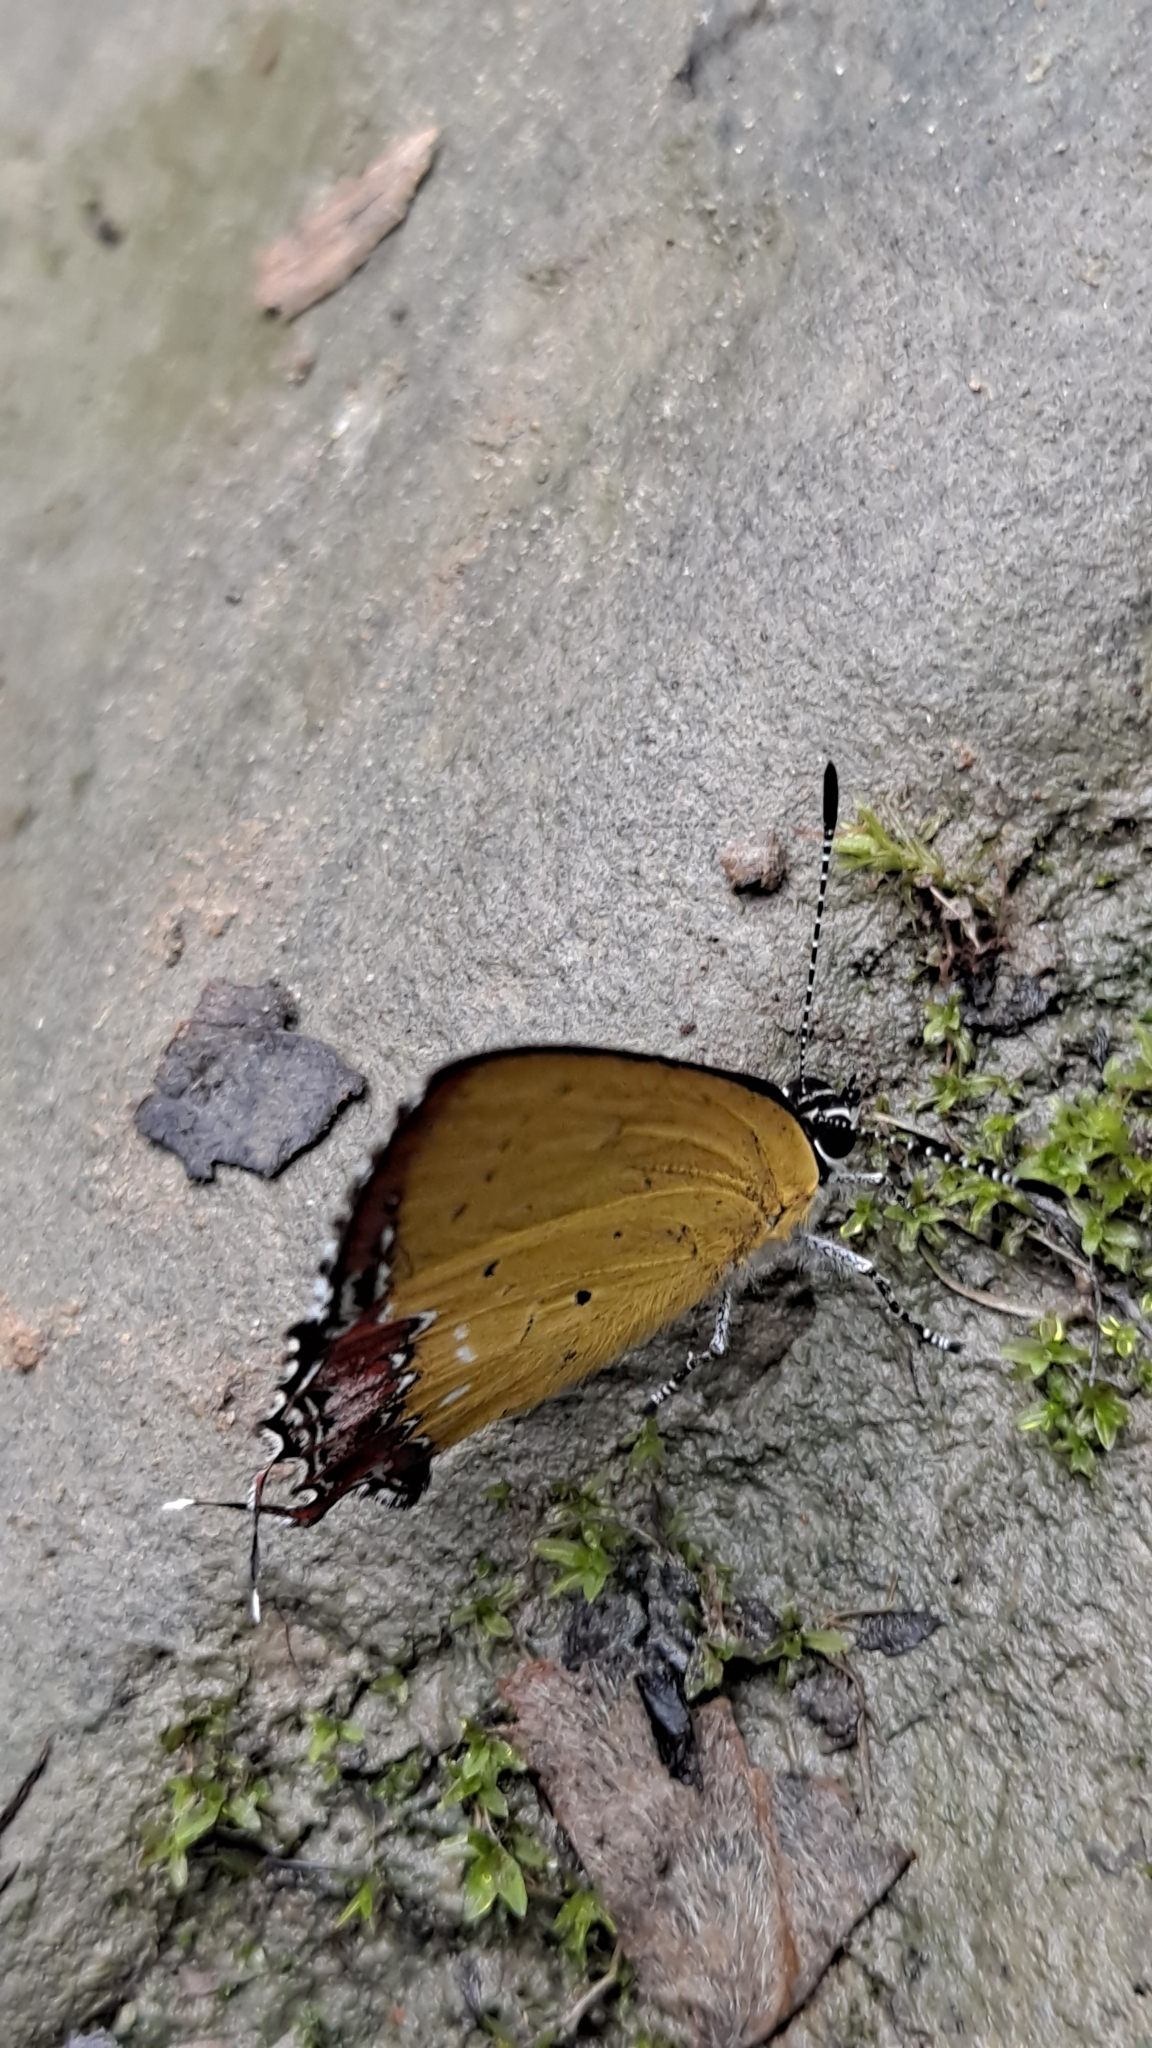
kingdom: Animalia
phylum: Arthropoda
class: Insecta
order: Lepidoptera
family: Lycaenidae
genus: Heliophorus
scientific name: Heliophorus ila
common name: Restricted purple sapphire
